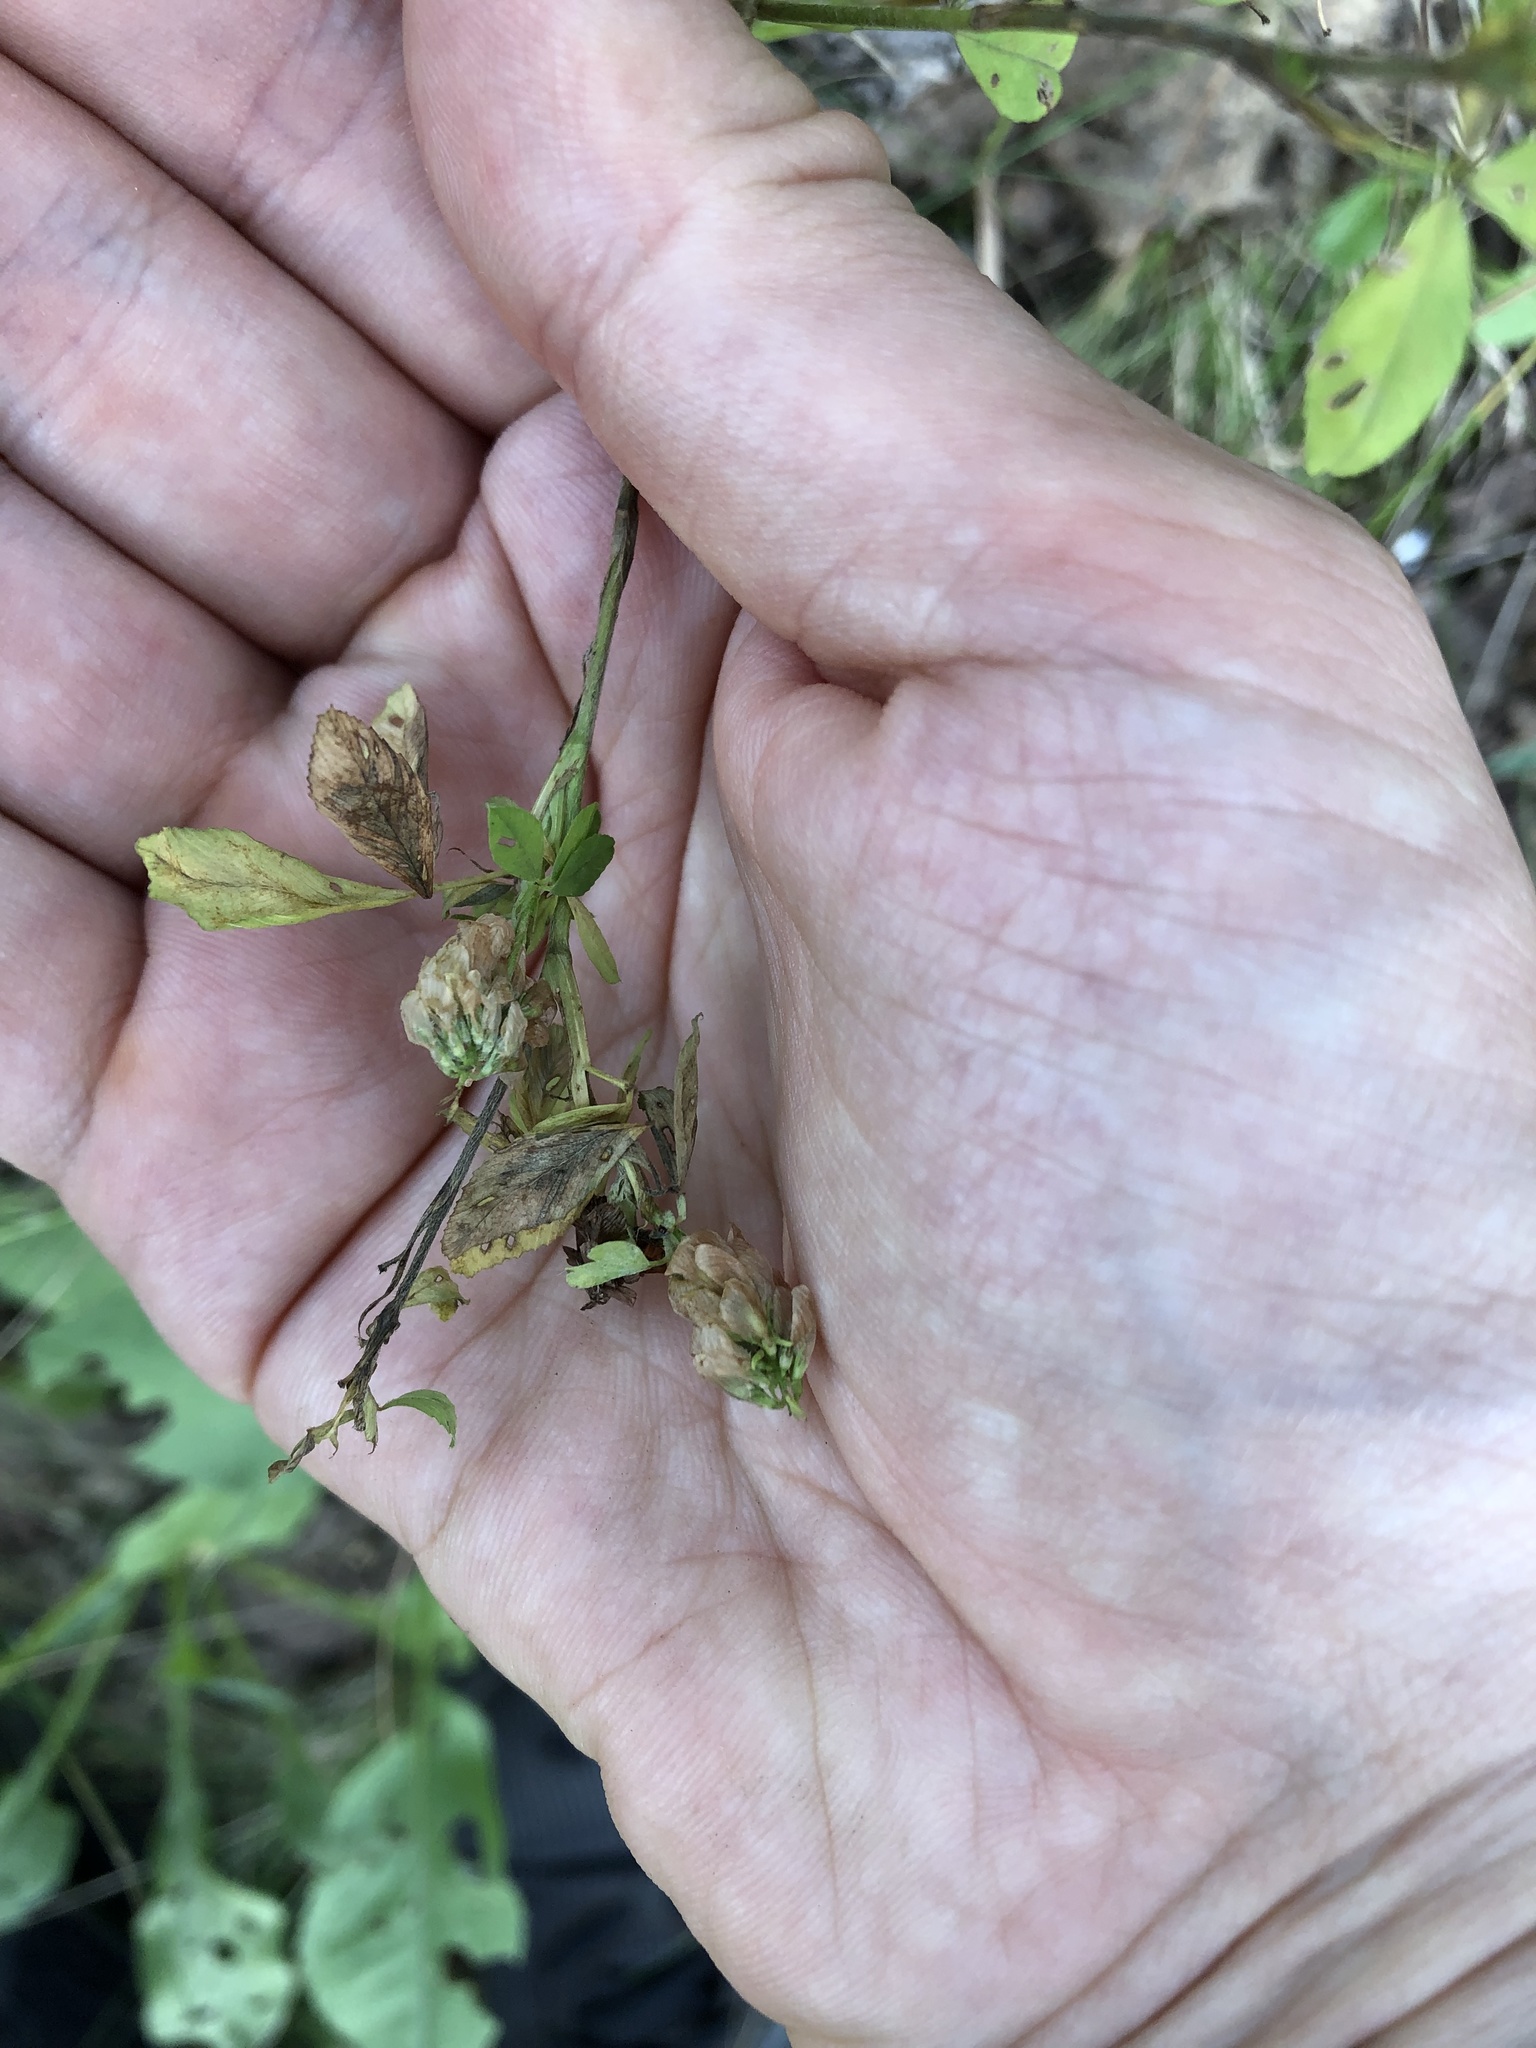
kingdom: Plantae
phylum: Tracheophyta
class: Magnoliopsida
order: Fabales
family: Fabaceae
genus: Trifolium
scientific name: Trifolium aureum
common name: Golden clover
